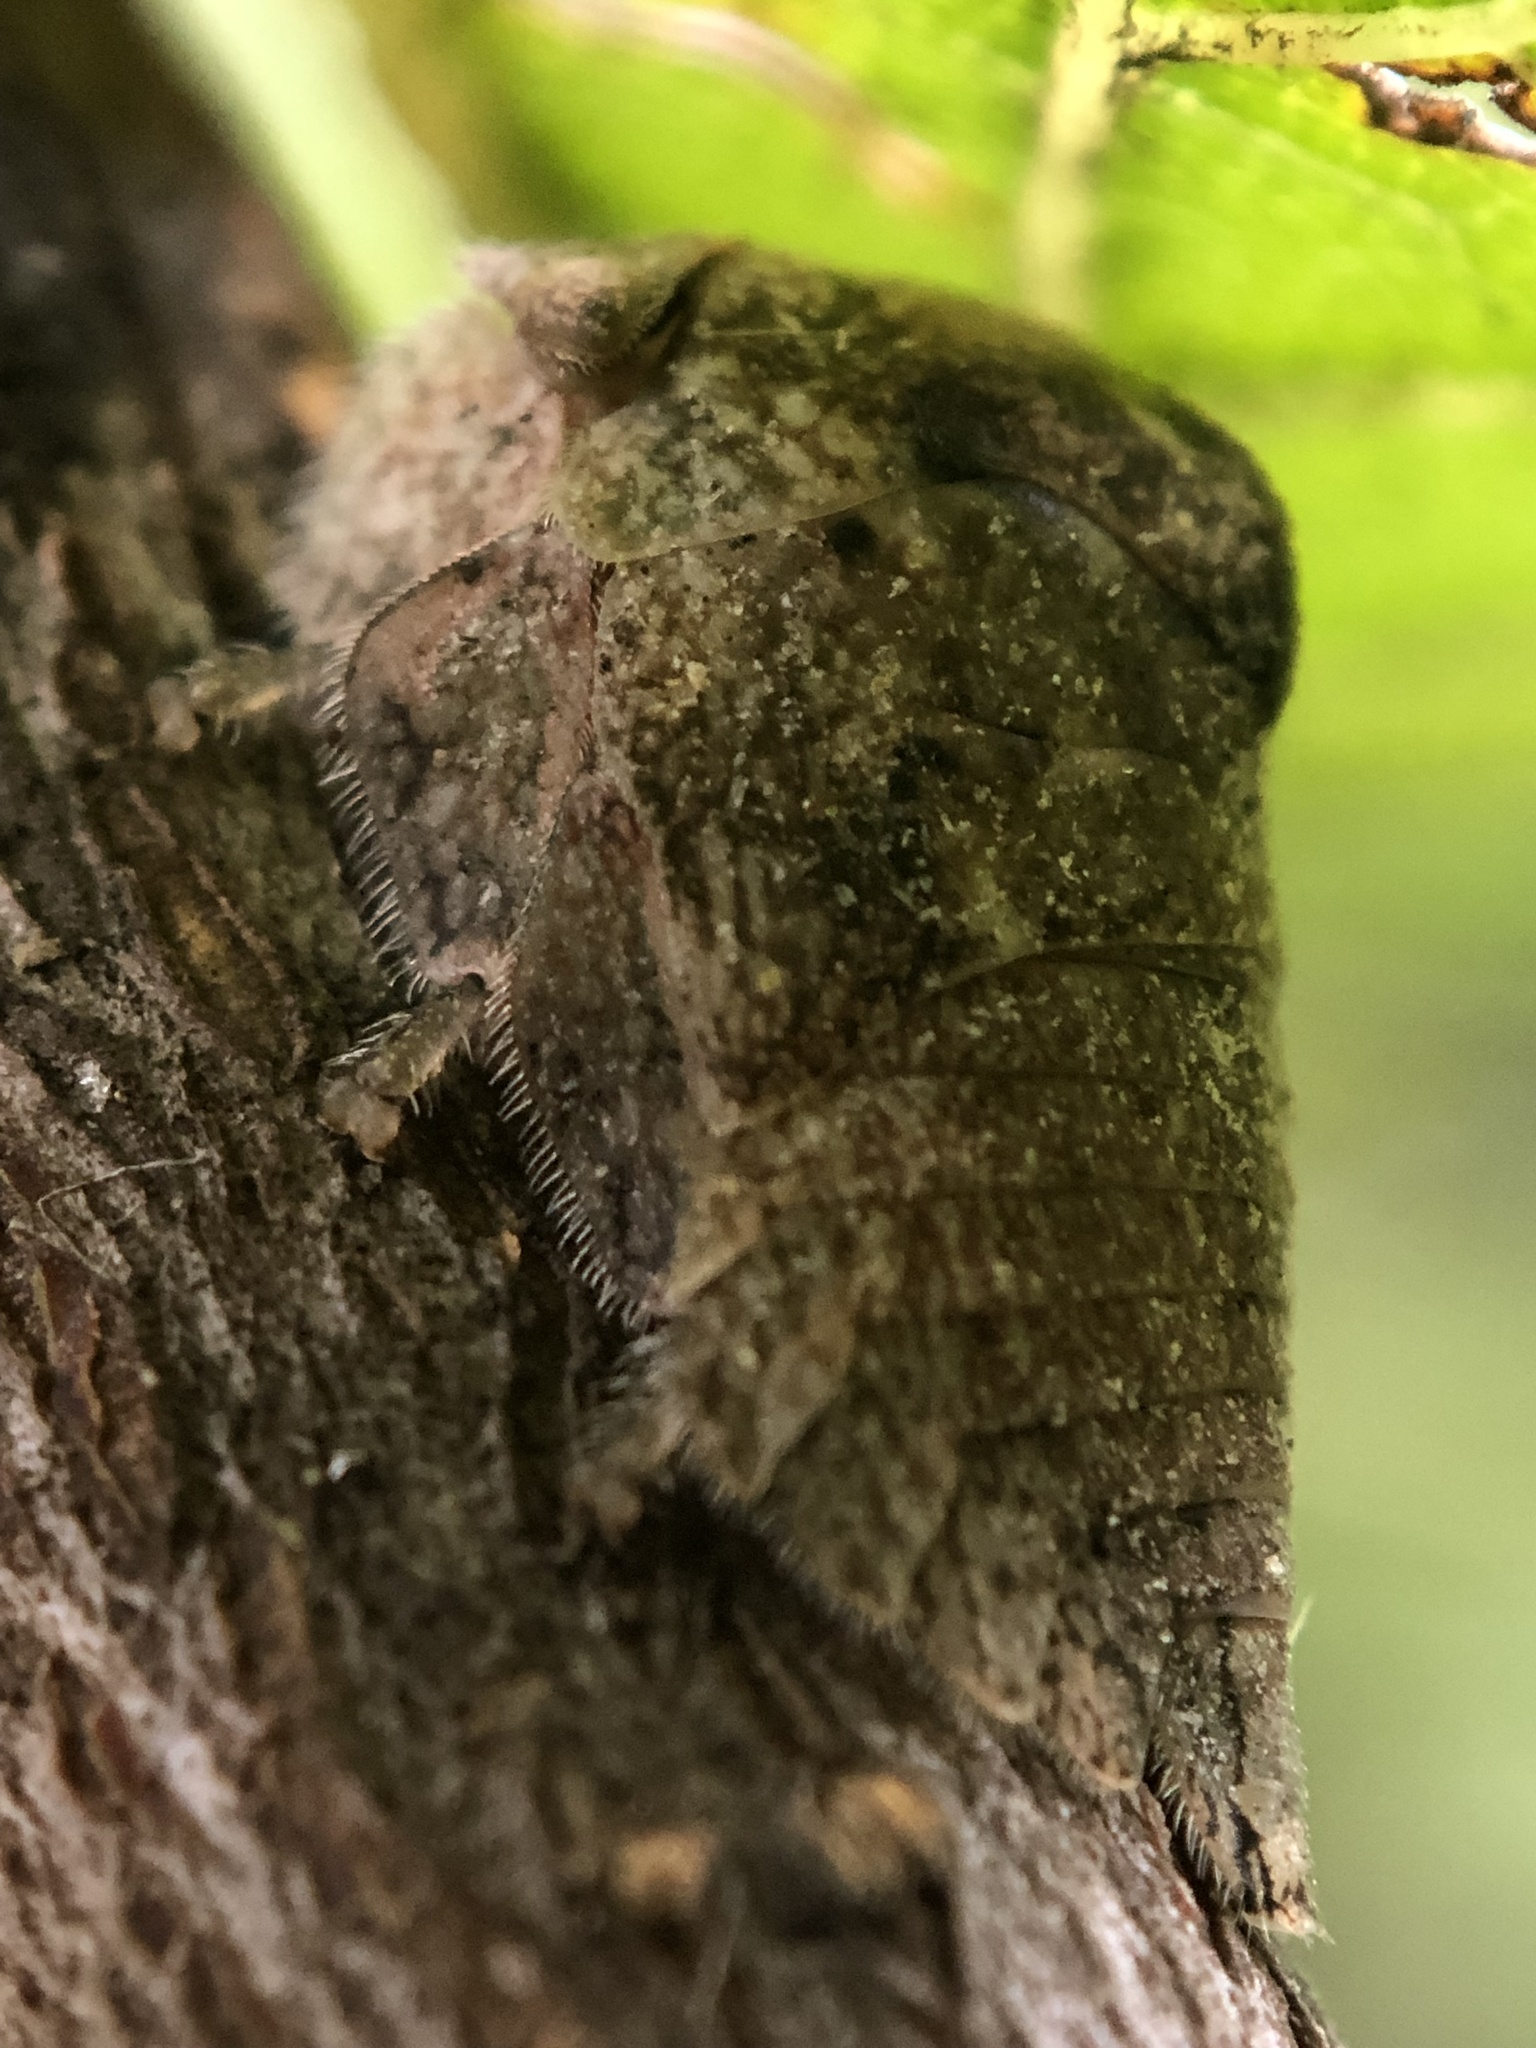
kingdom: Animalia
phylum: Arthropoda
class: Insecta
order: Hemiptera
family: Membracidae
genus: Hebetica
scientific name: Hebetica
